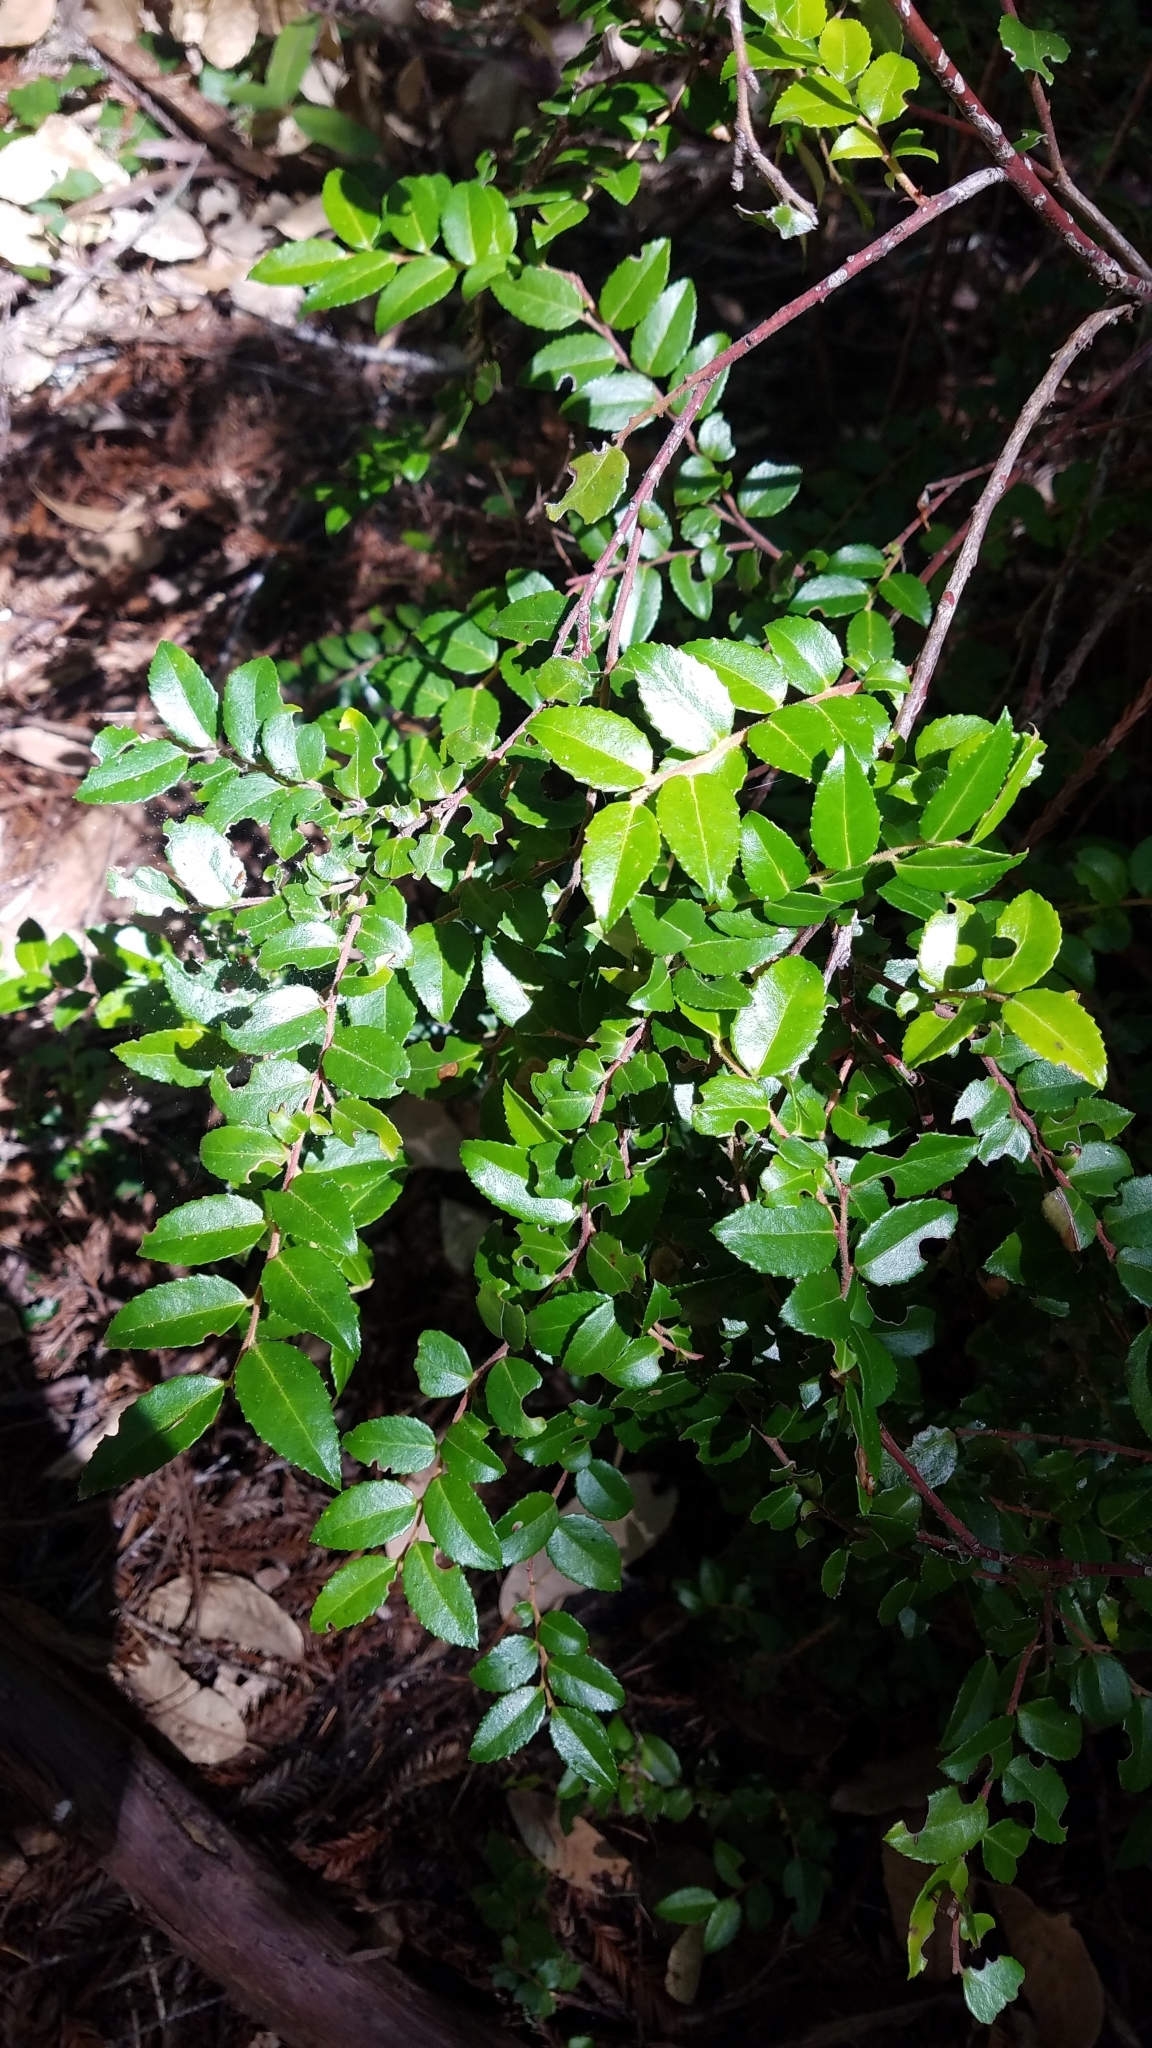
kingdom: Plantae
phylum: Tracheophyta
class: Magnoliopsida
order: Ericales
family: Ericaceae
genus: Vaccinium
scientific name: Vaccinium ovatum
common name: California-huckleberry
